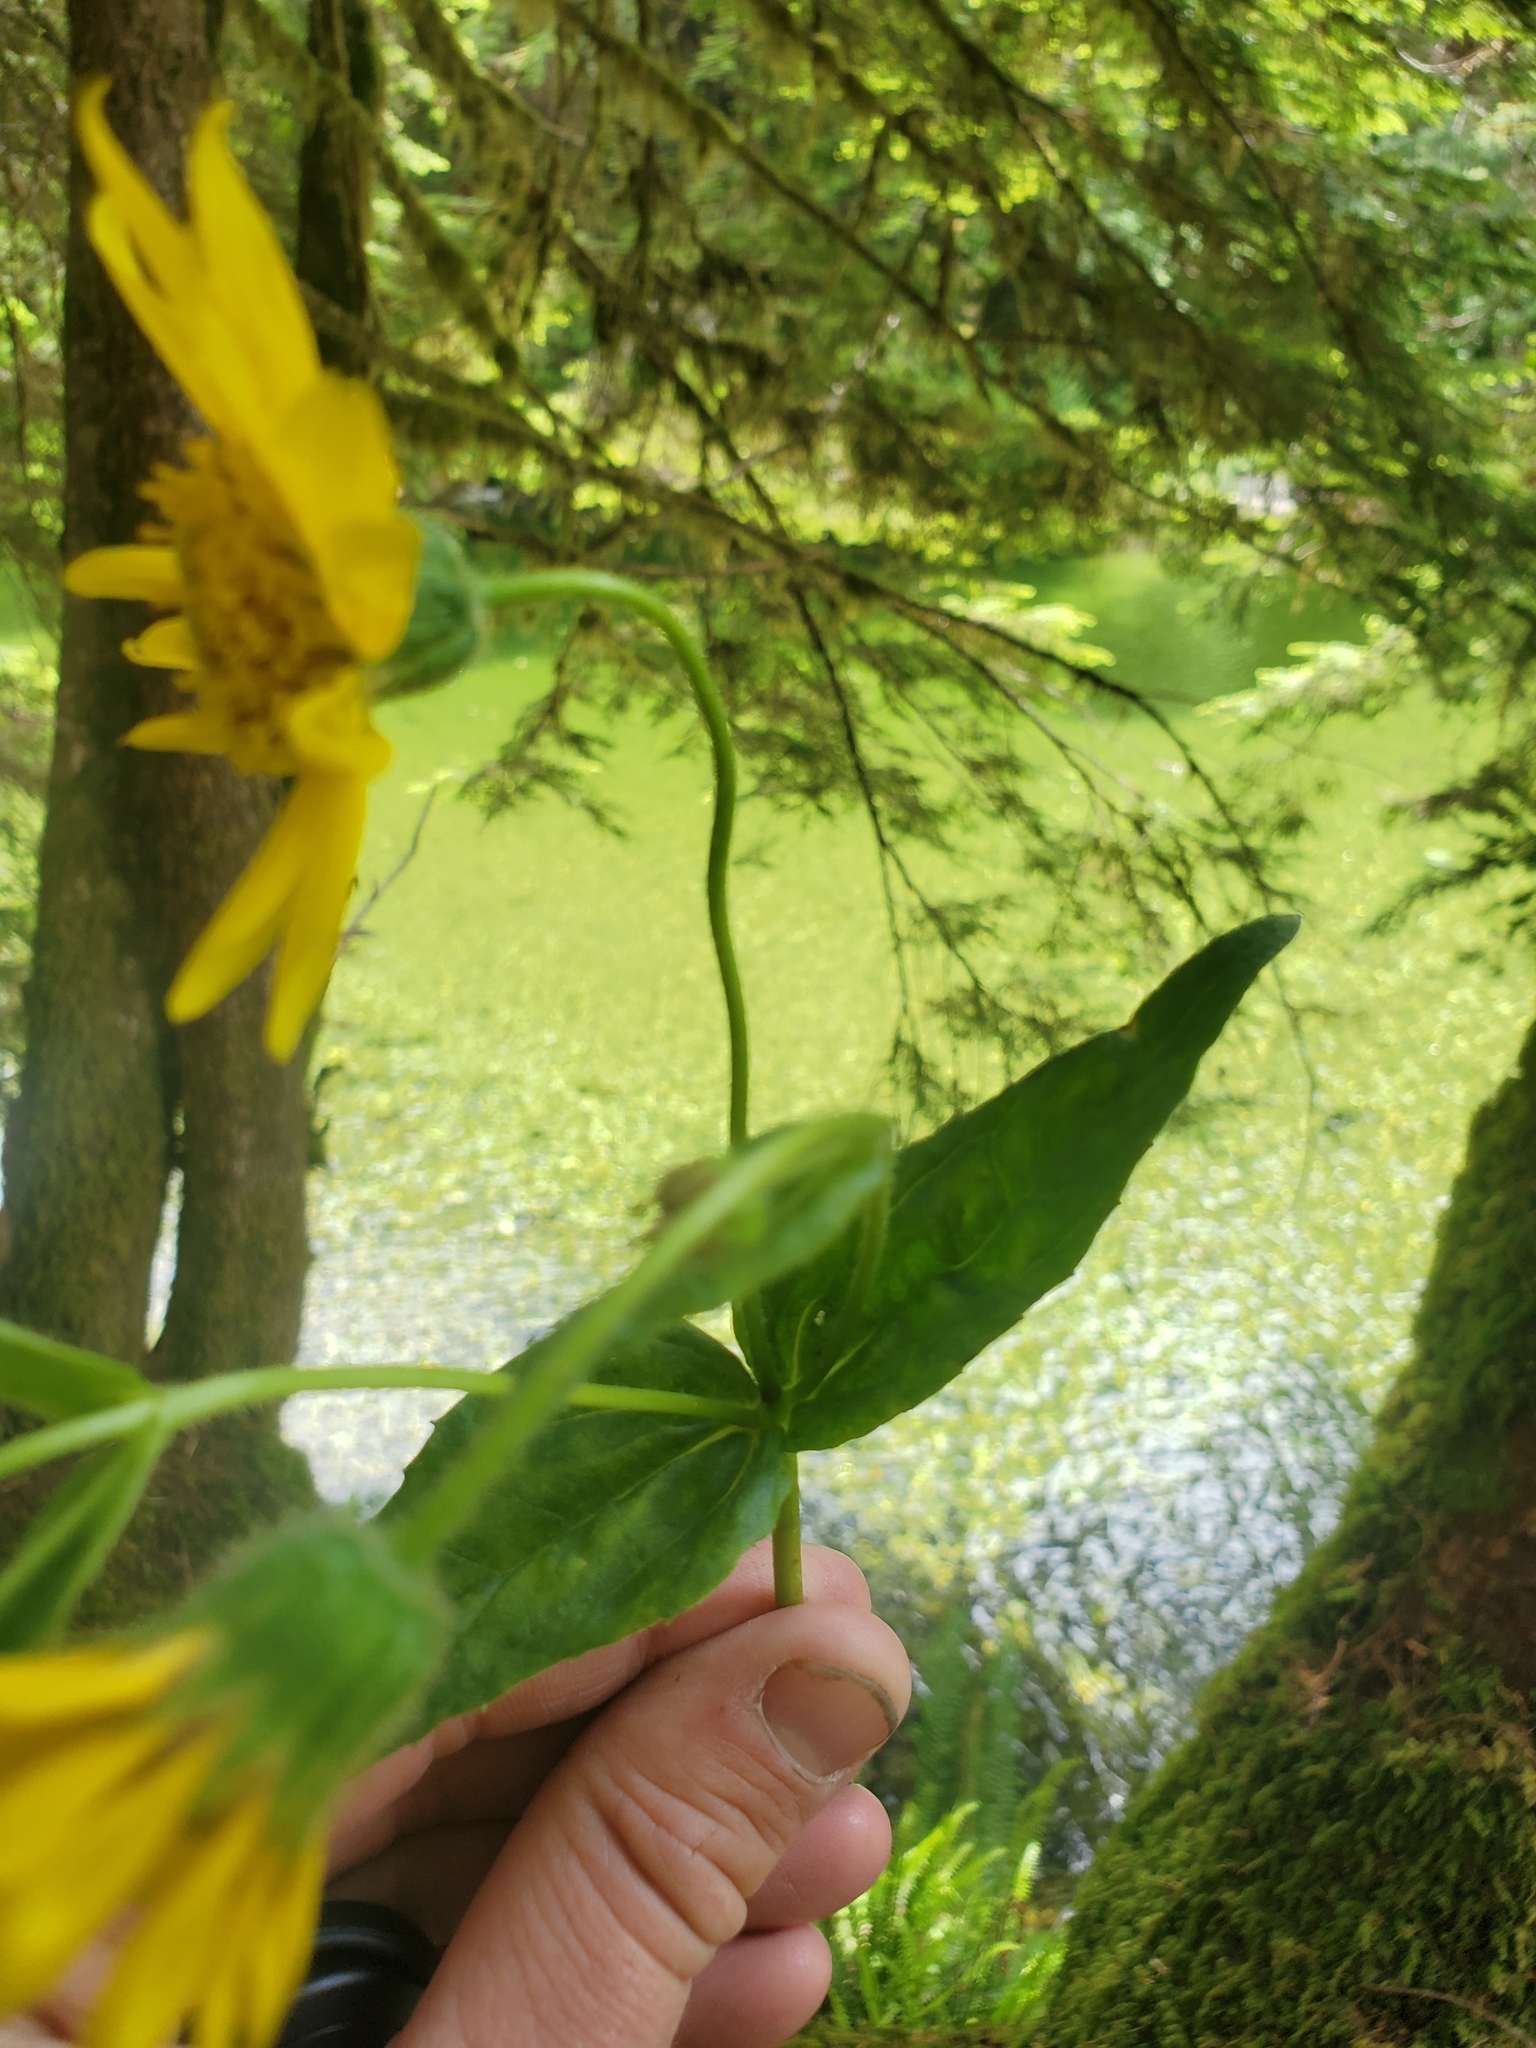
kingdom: Plantae
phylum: Tracheophyta
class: Magnoliopsida
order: Asterales
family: Asteraceae
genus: Arnica
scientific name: Arnica latifolia
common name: Arnica
